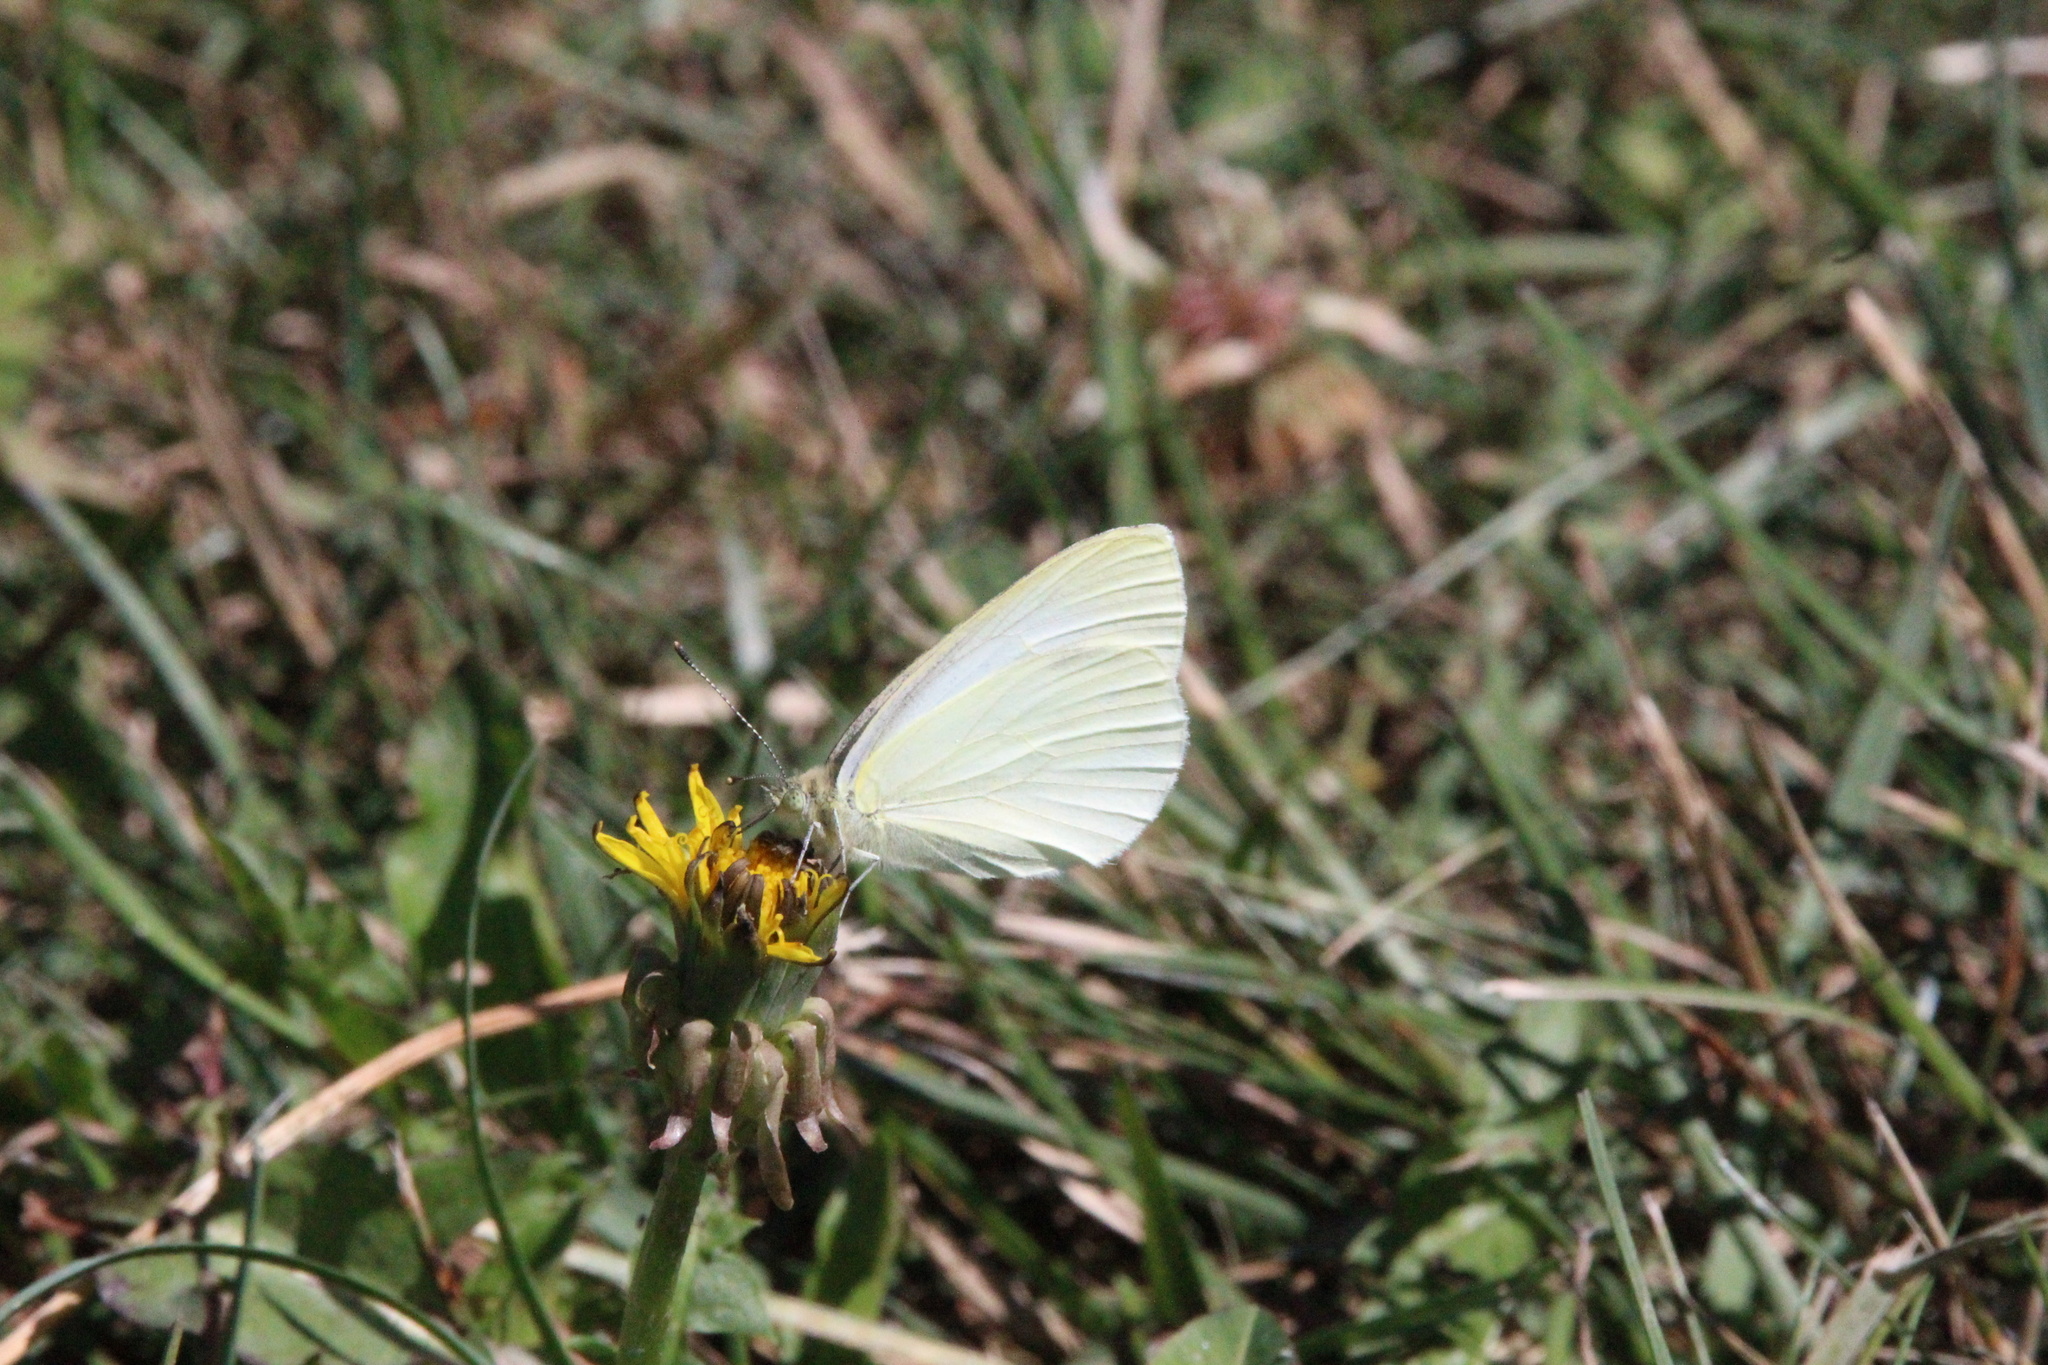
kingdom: Animalia
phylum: Arthropoda
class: Insecta
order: Lepidoptera
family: Pieridae
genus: Pieris
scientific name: Pieris marginalis
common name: Margined white
